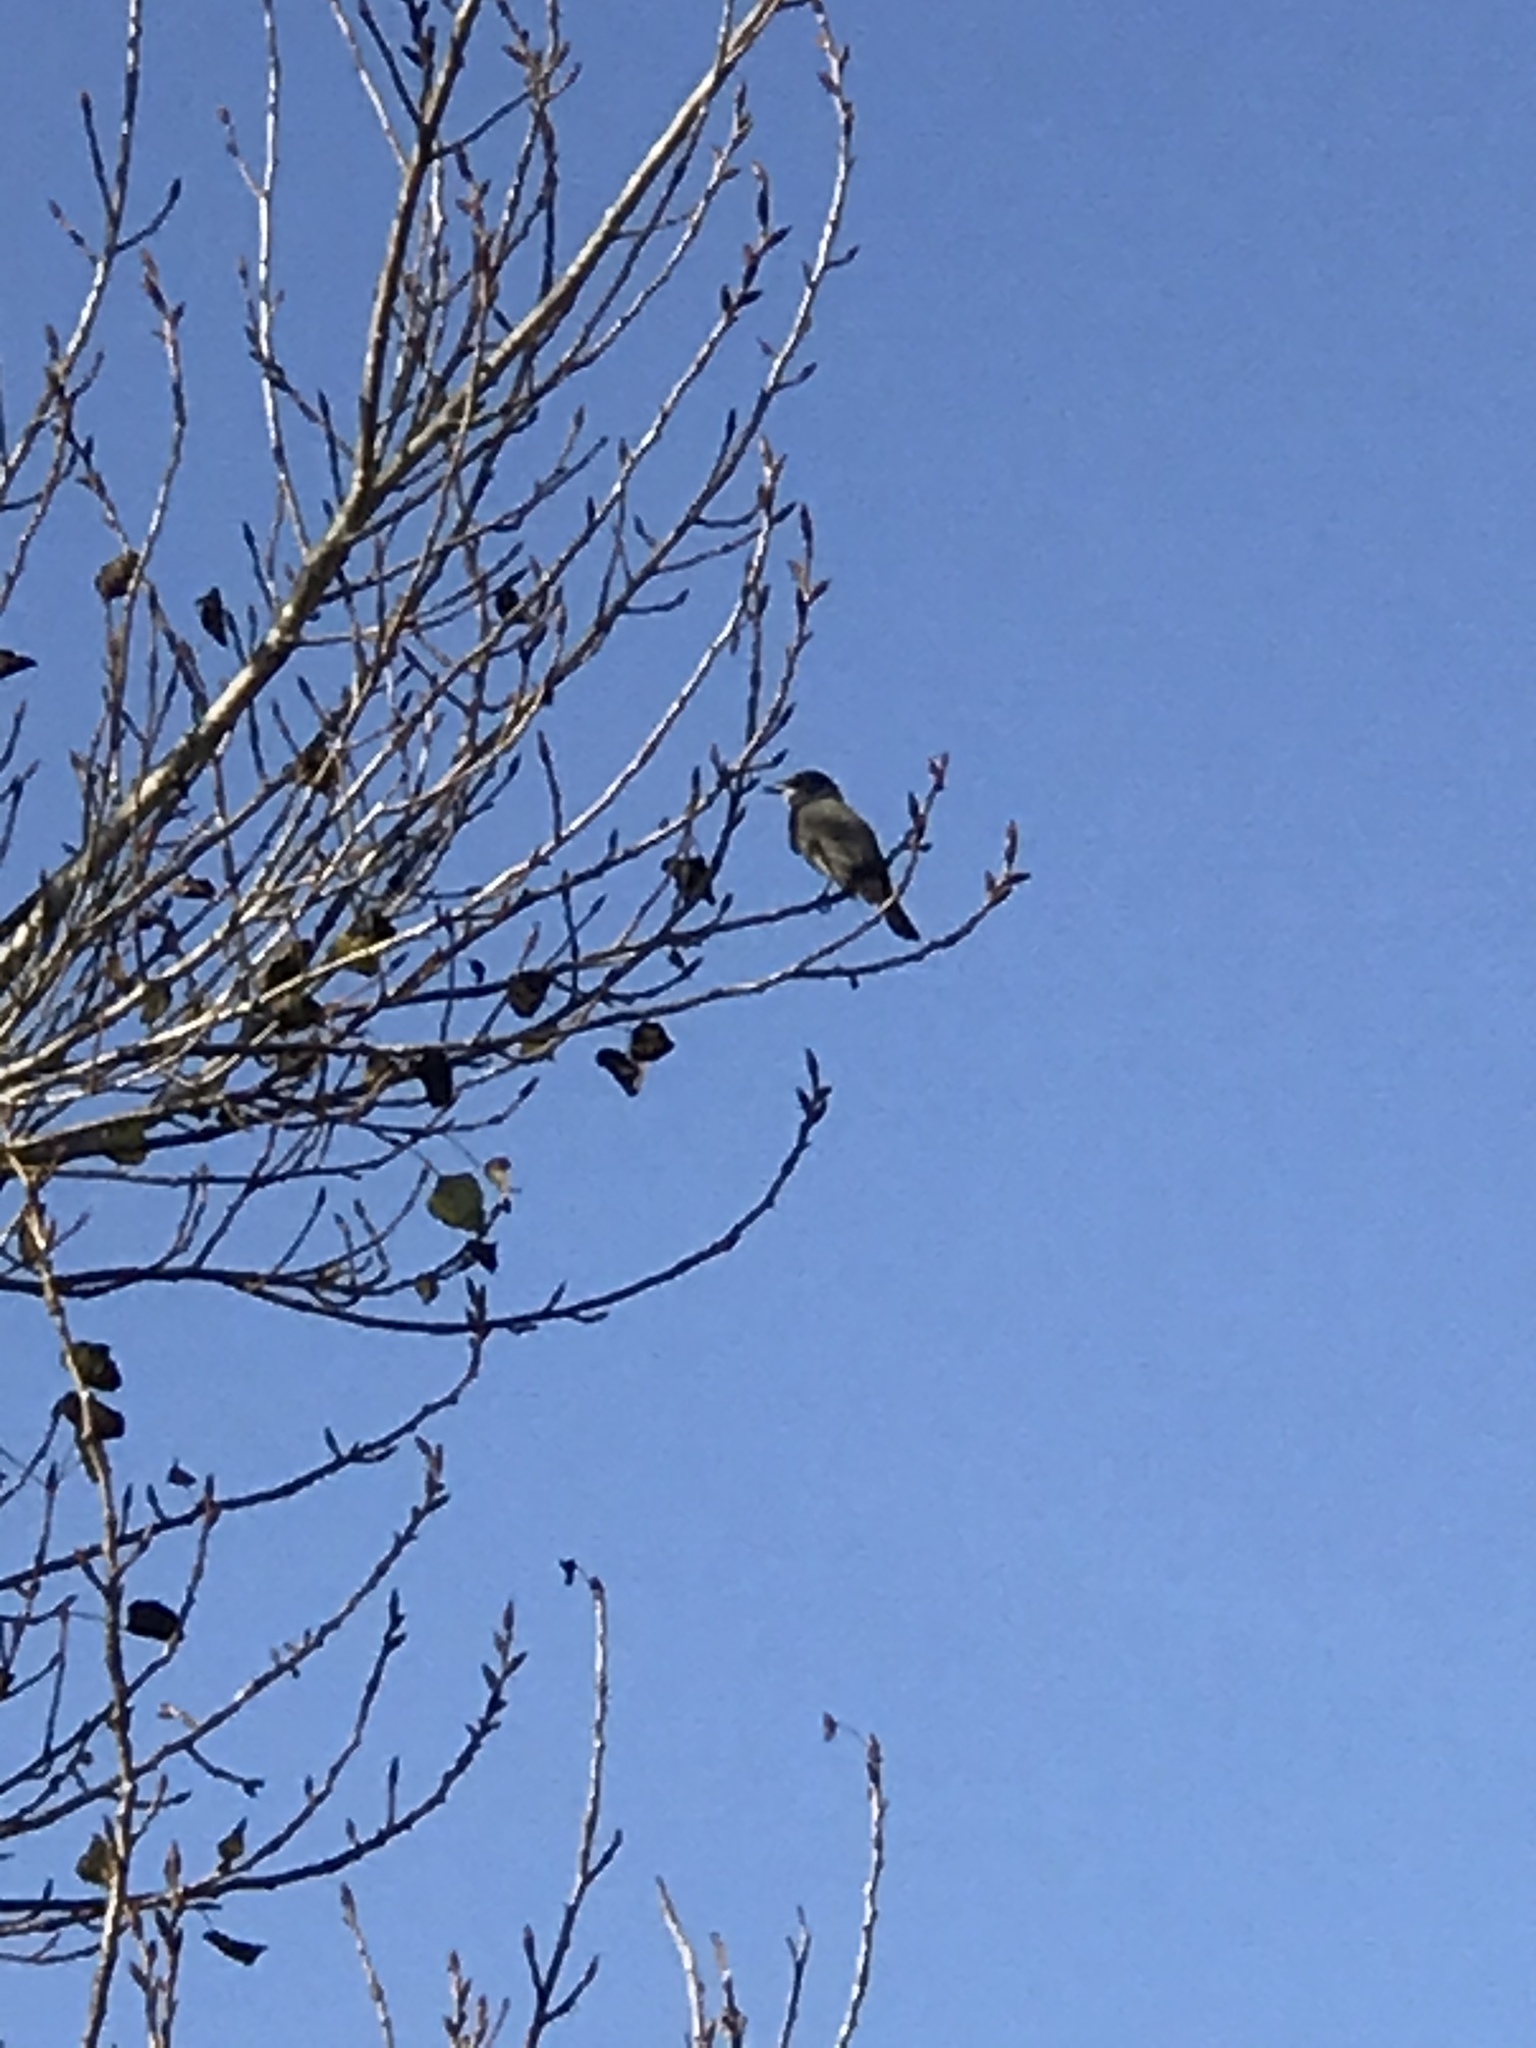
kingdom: Animalia
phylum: Chordata
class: Aves
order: Passeriformes
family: Tyrannidae
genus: Tyrannus
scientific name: Tyrannus vociferans
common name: Cassin's kingbird
